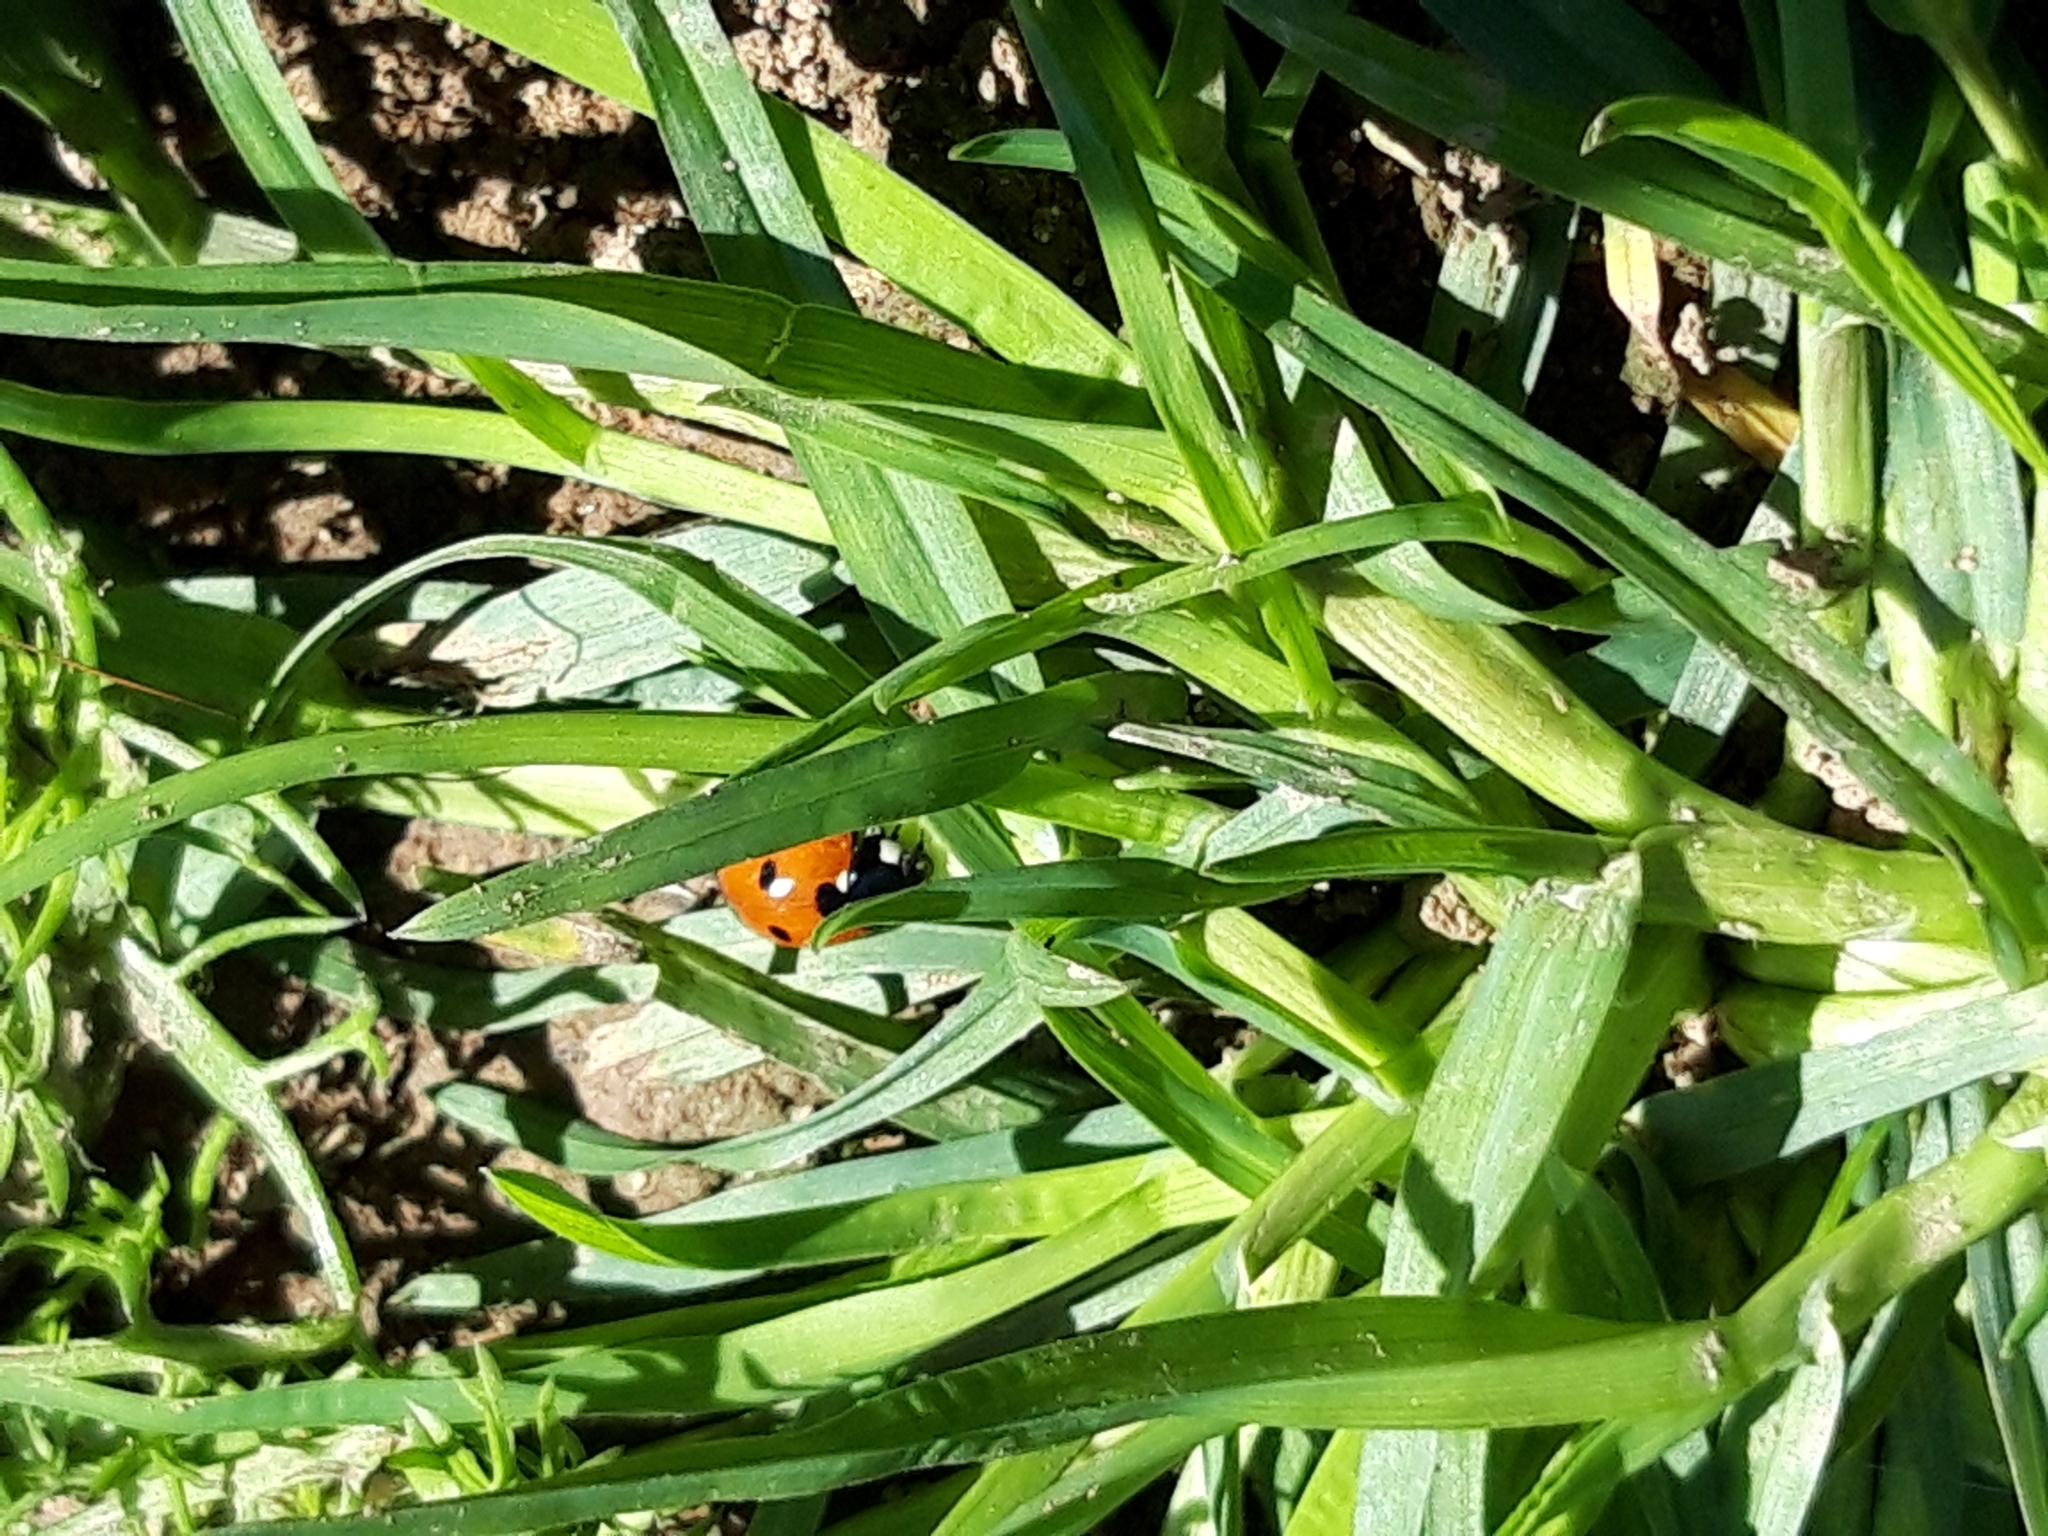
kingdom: Animalia
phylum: Arthropoda
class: Insecta
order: Coleoptera
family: Coccinellidae
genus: Coccinella
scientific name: Coccinella septempunctata
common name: Sevenspotted lady beetle
